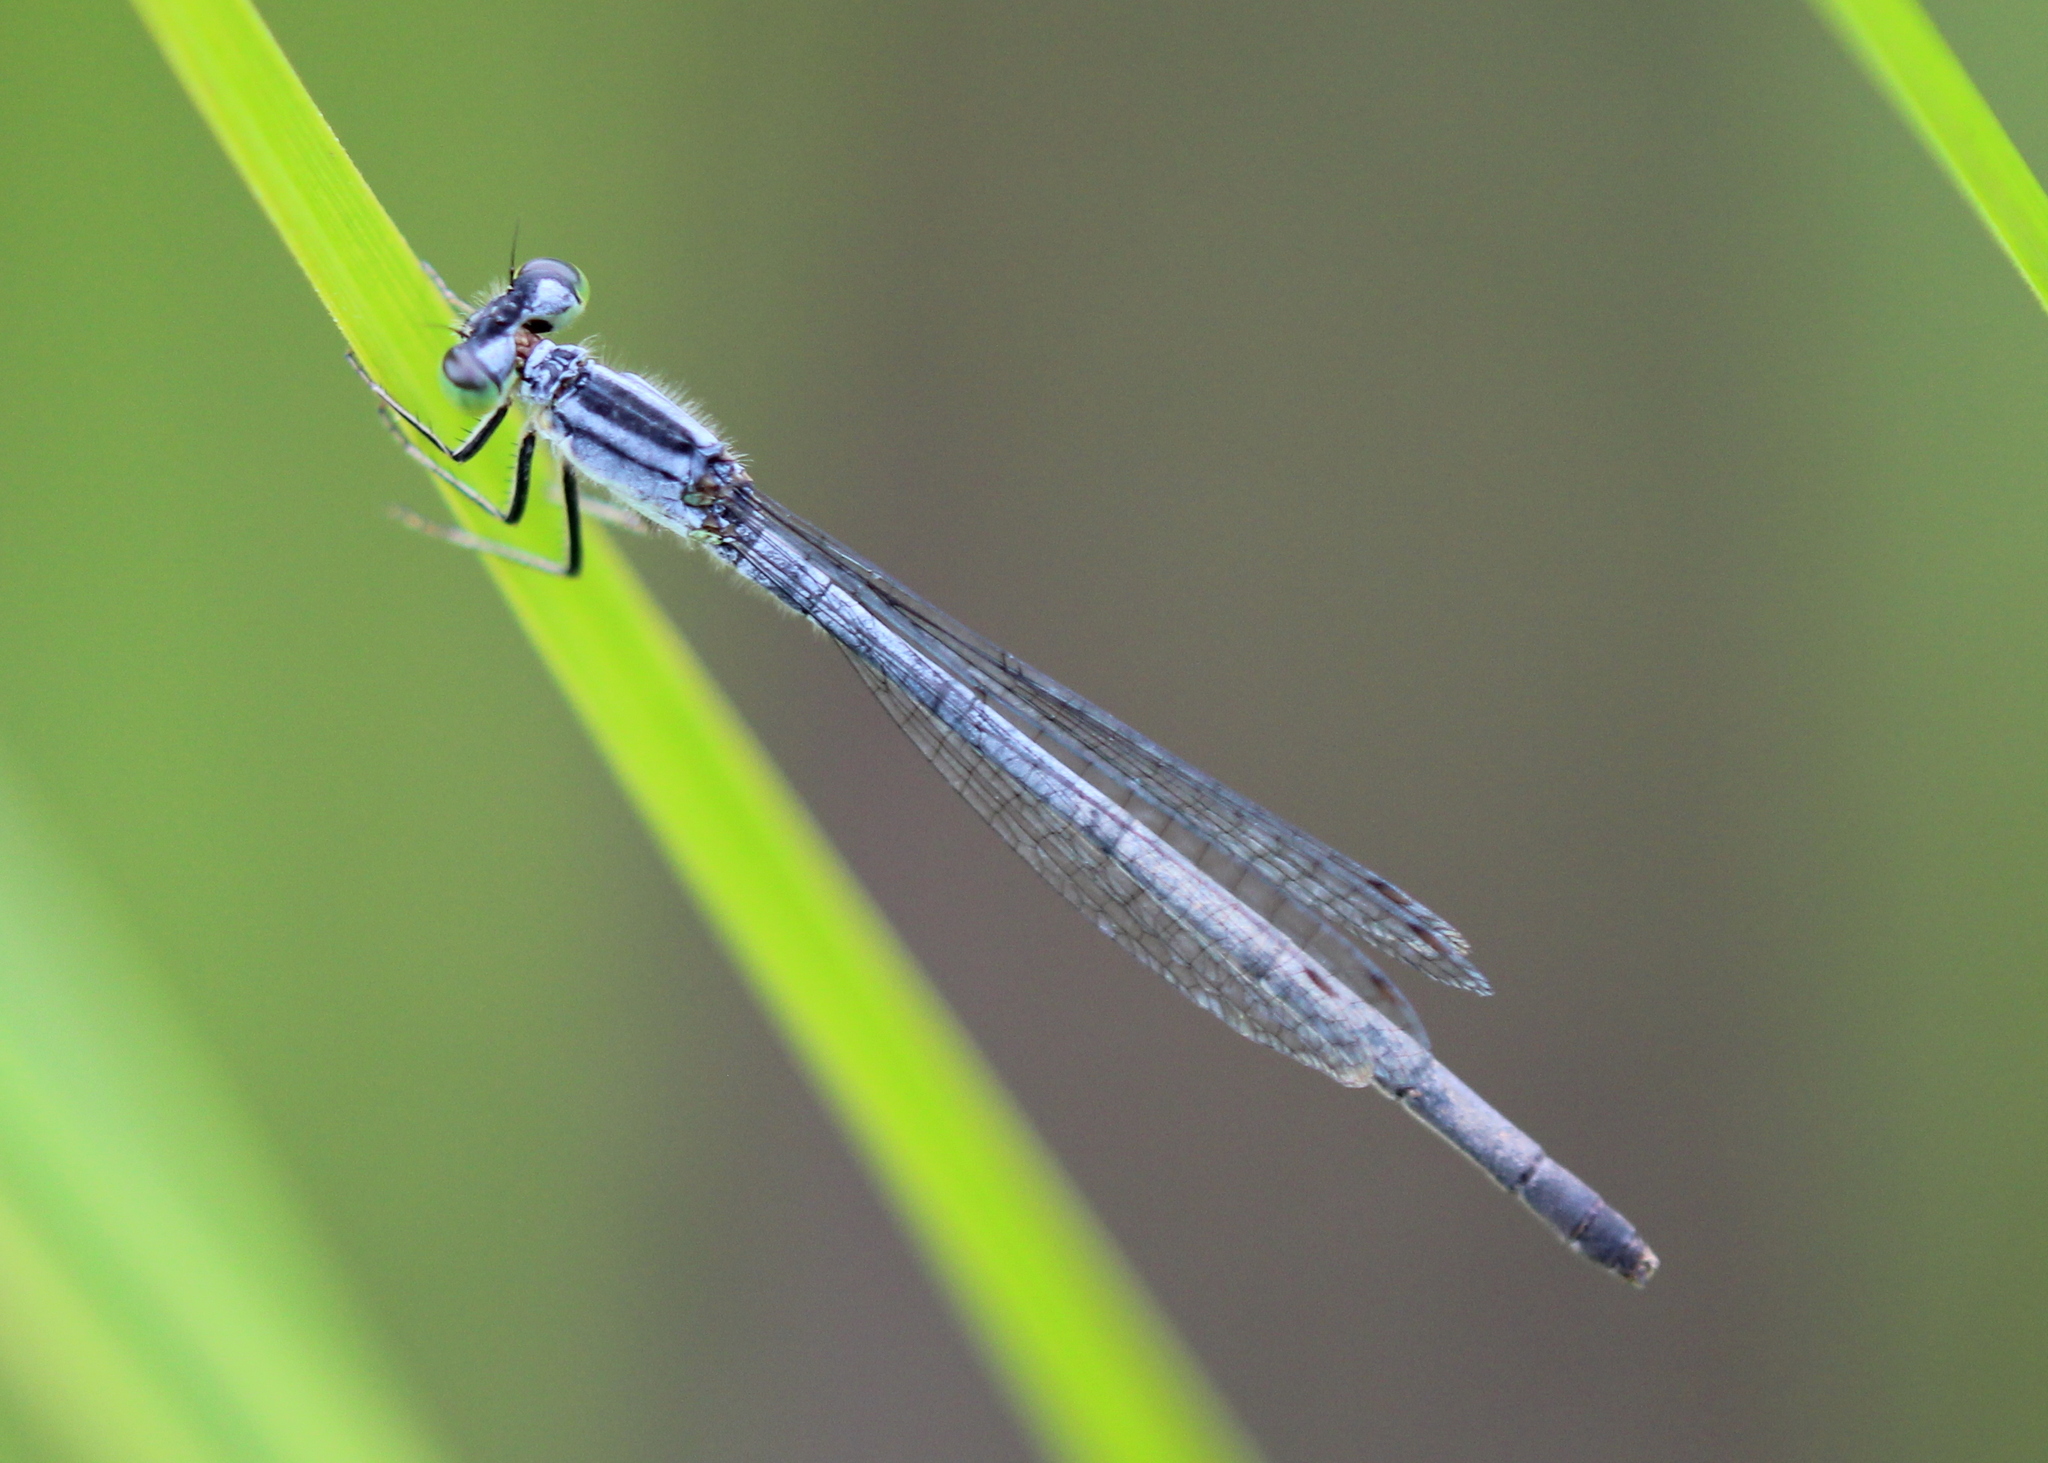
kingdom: Animalia
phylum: Arthropoda
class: Insecta
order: Odonata
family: Coenagrionidae
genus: Ischnura
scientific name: Ischnura verticalis
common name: Eastern forktail
